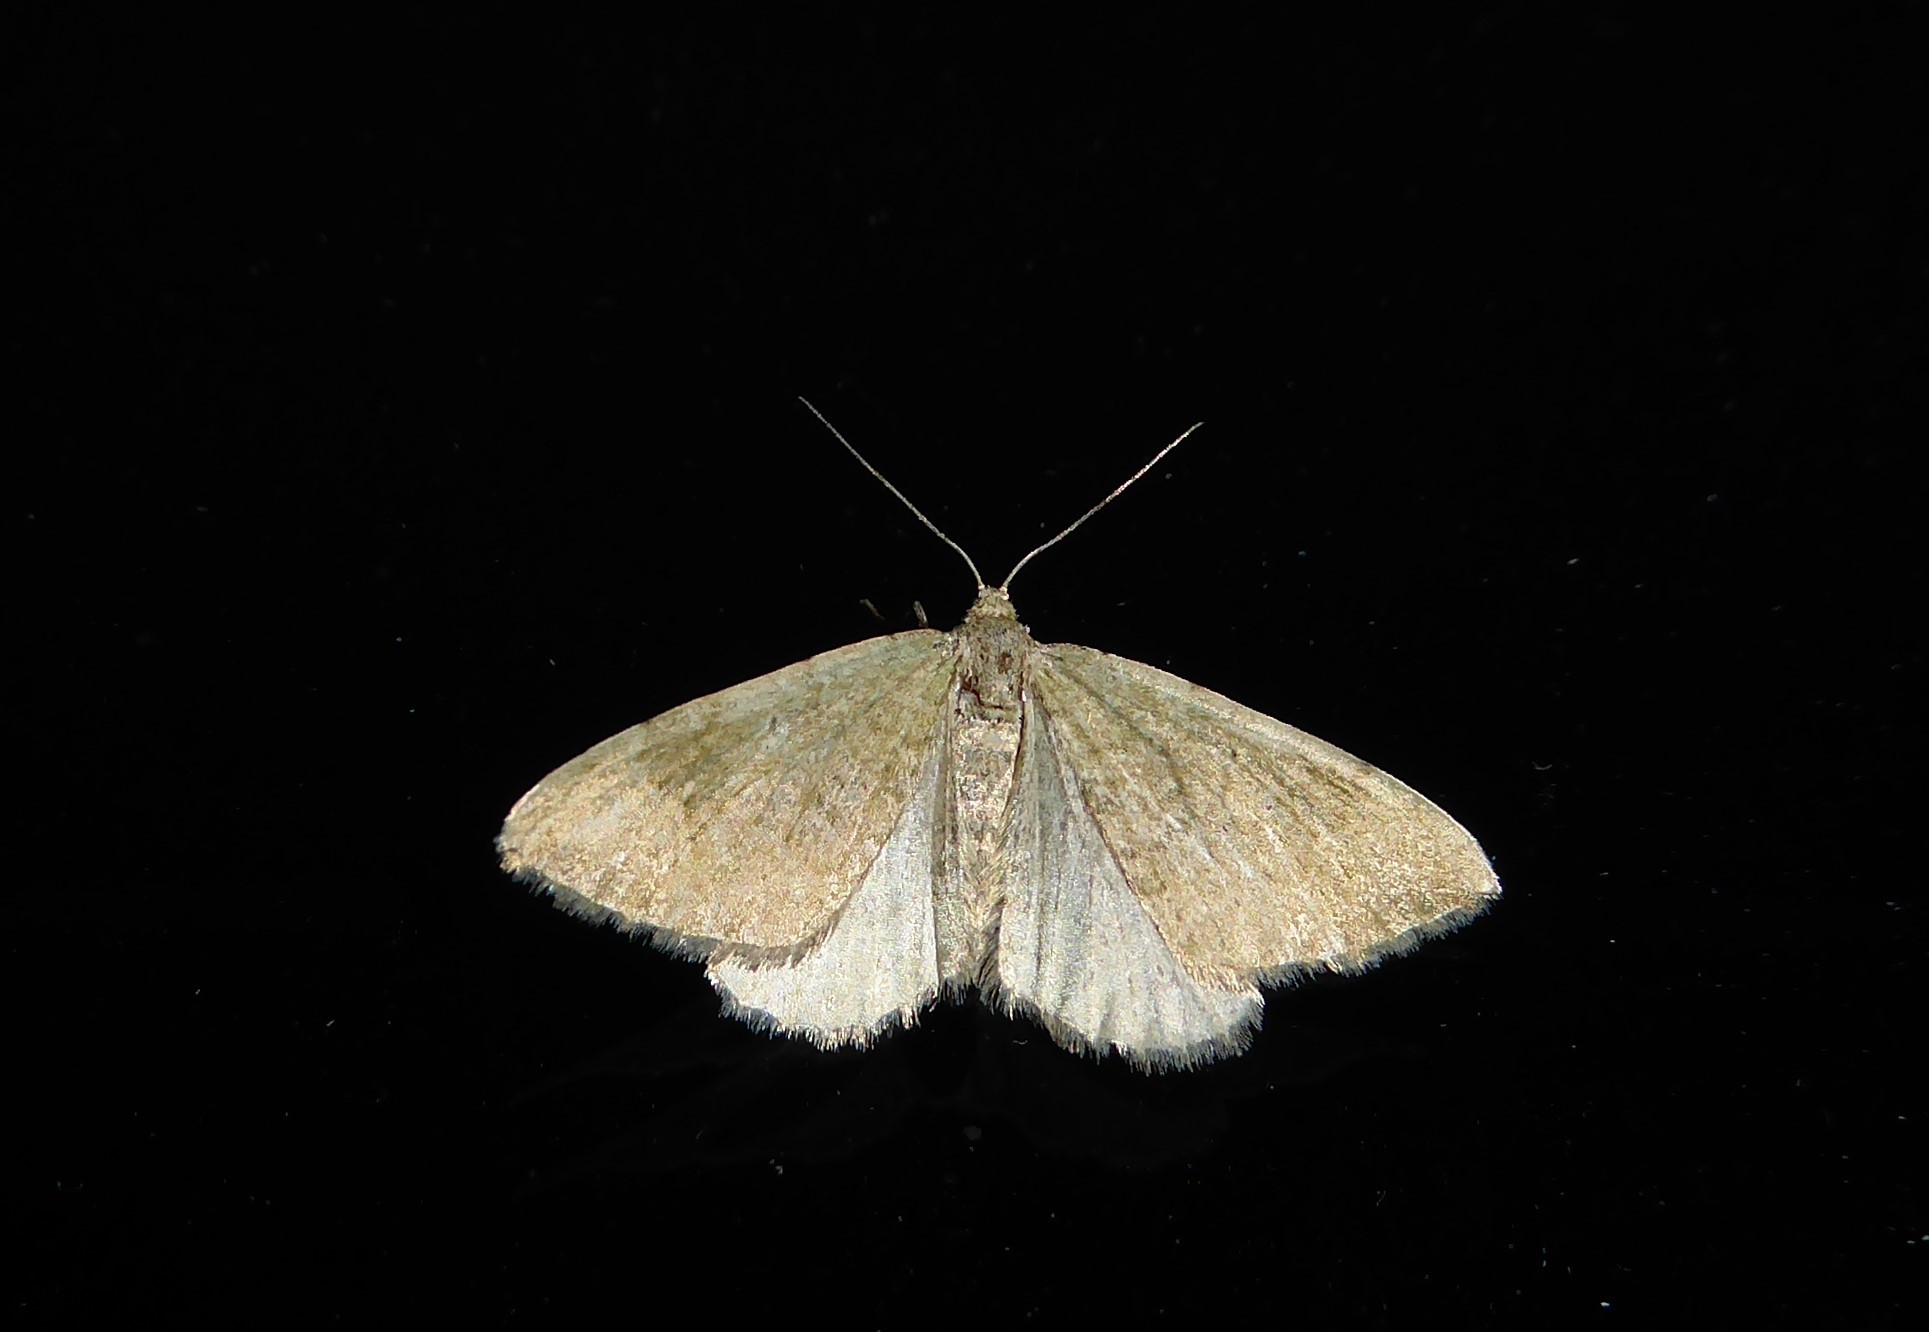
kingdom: Animalia
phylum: Arthropoda
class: Insecta
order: Lepidoptera
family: Geometridae
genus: Epyaxa
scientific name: Epyaxa rosearia
